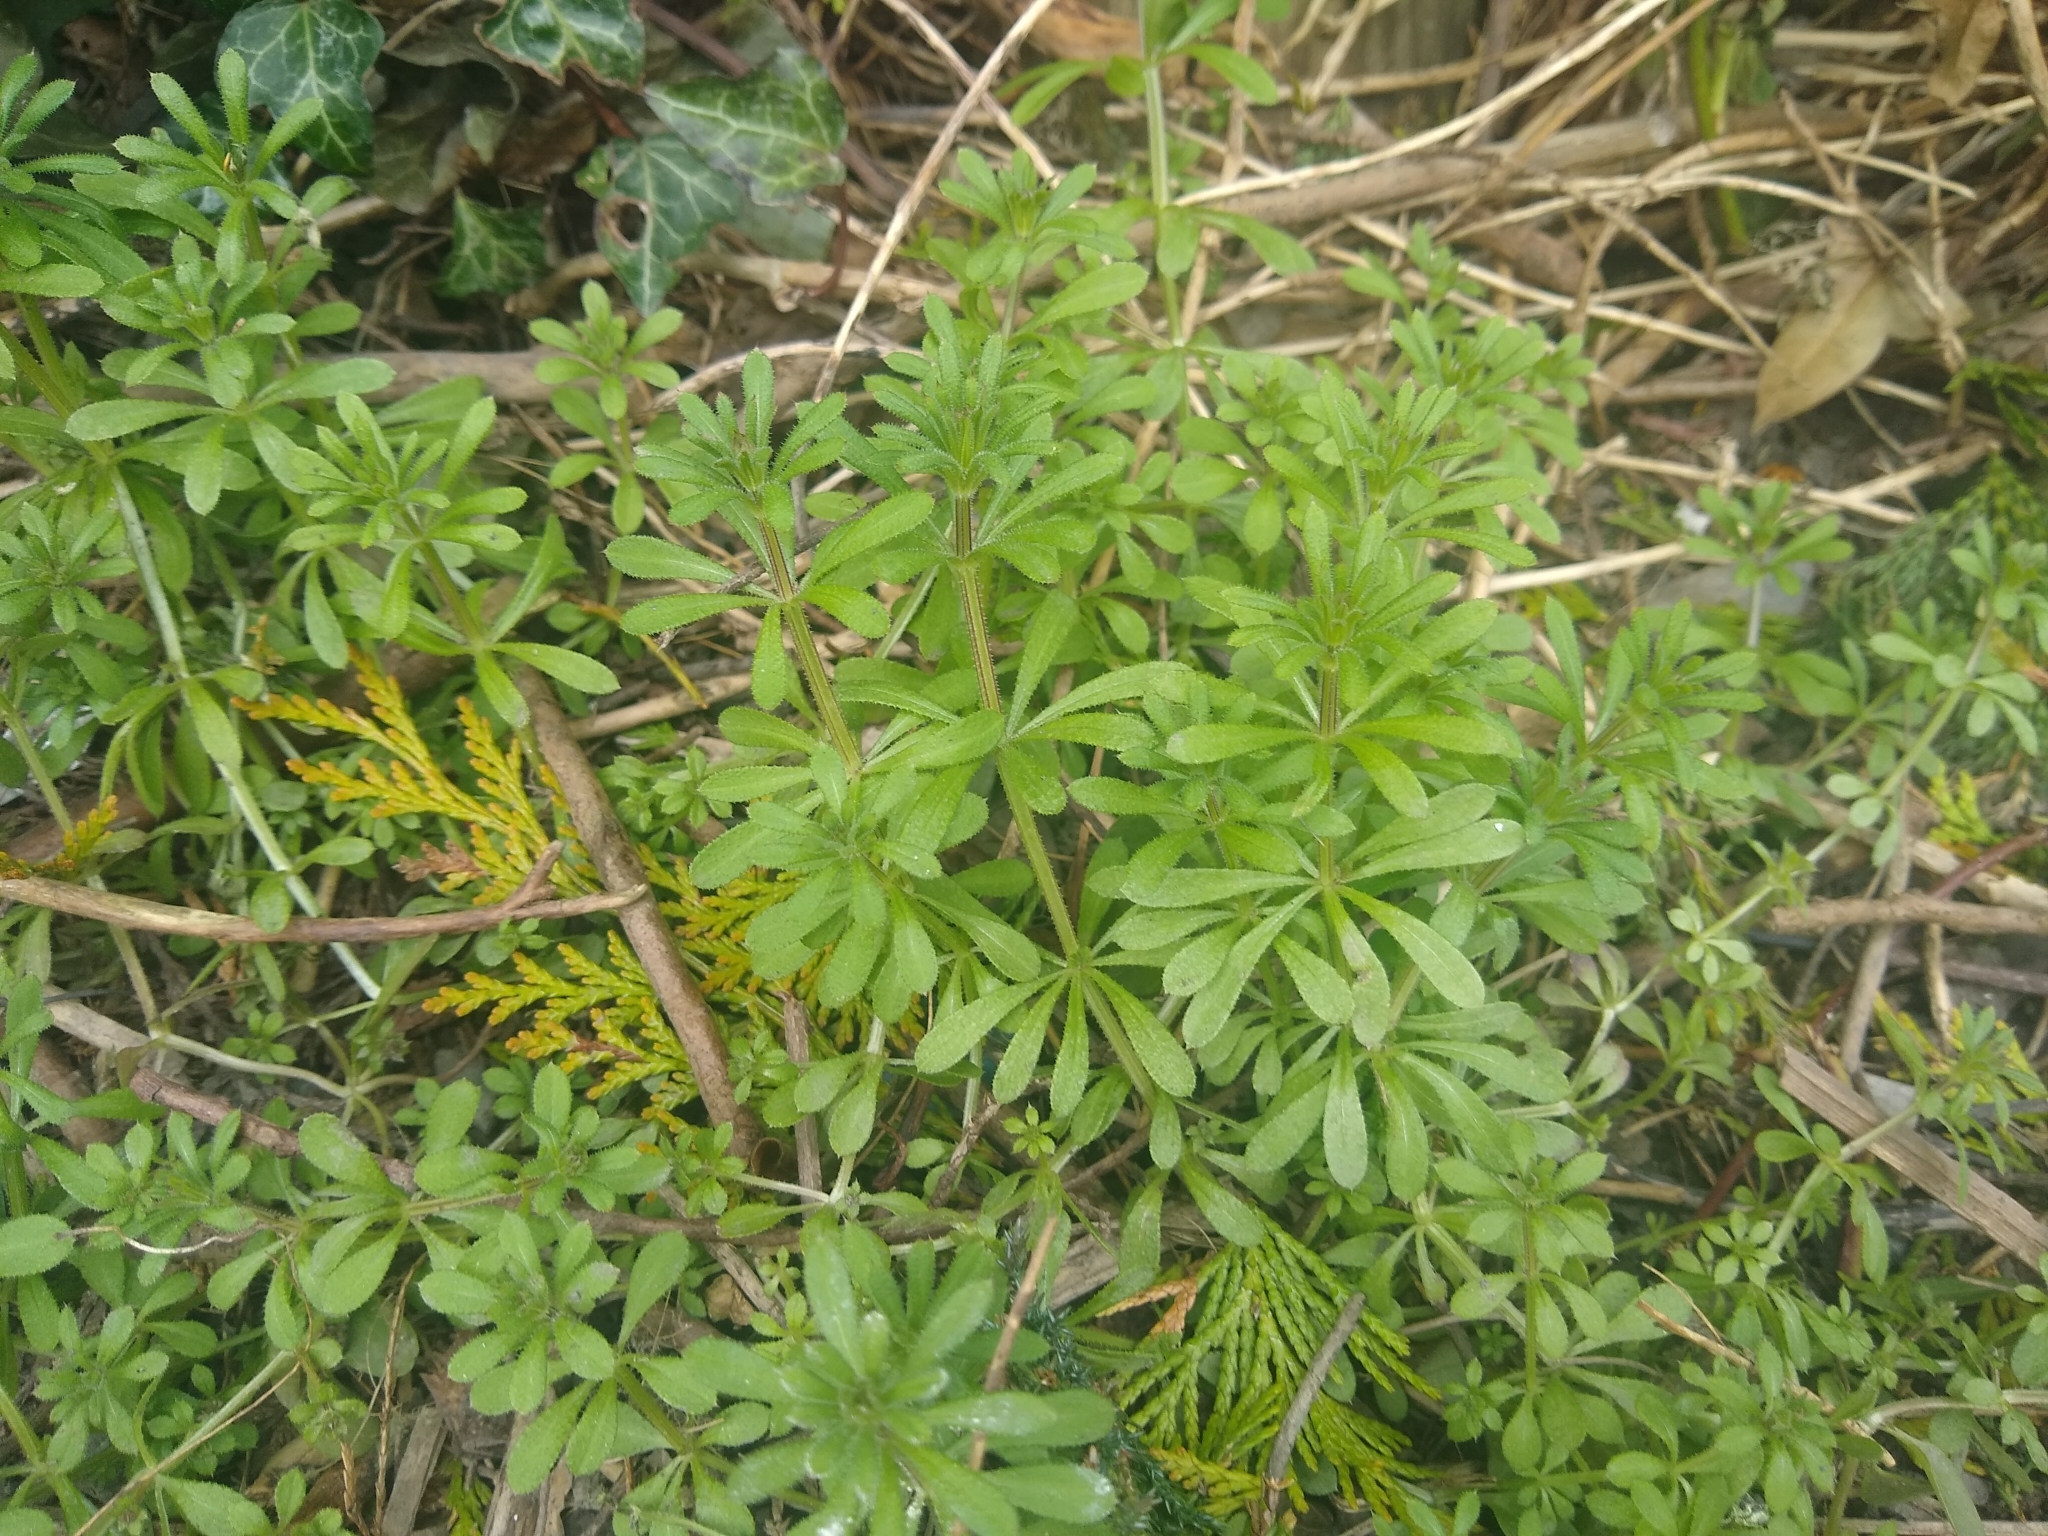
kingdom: Plantae
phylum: Tracheophyta
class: Magnoliopsida
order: Gentianales
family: Rubiaceae
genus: Galium
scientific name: Galium aparine
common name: Cleavers
